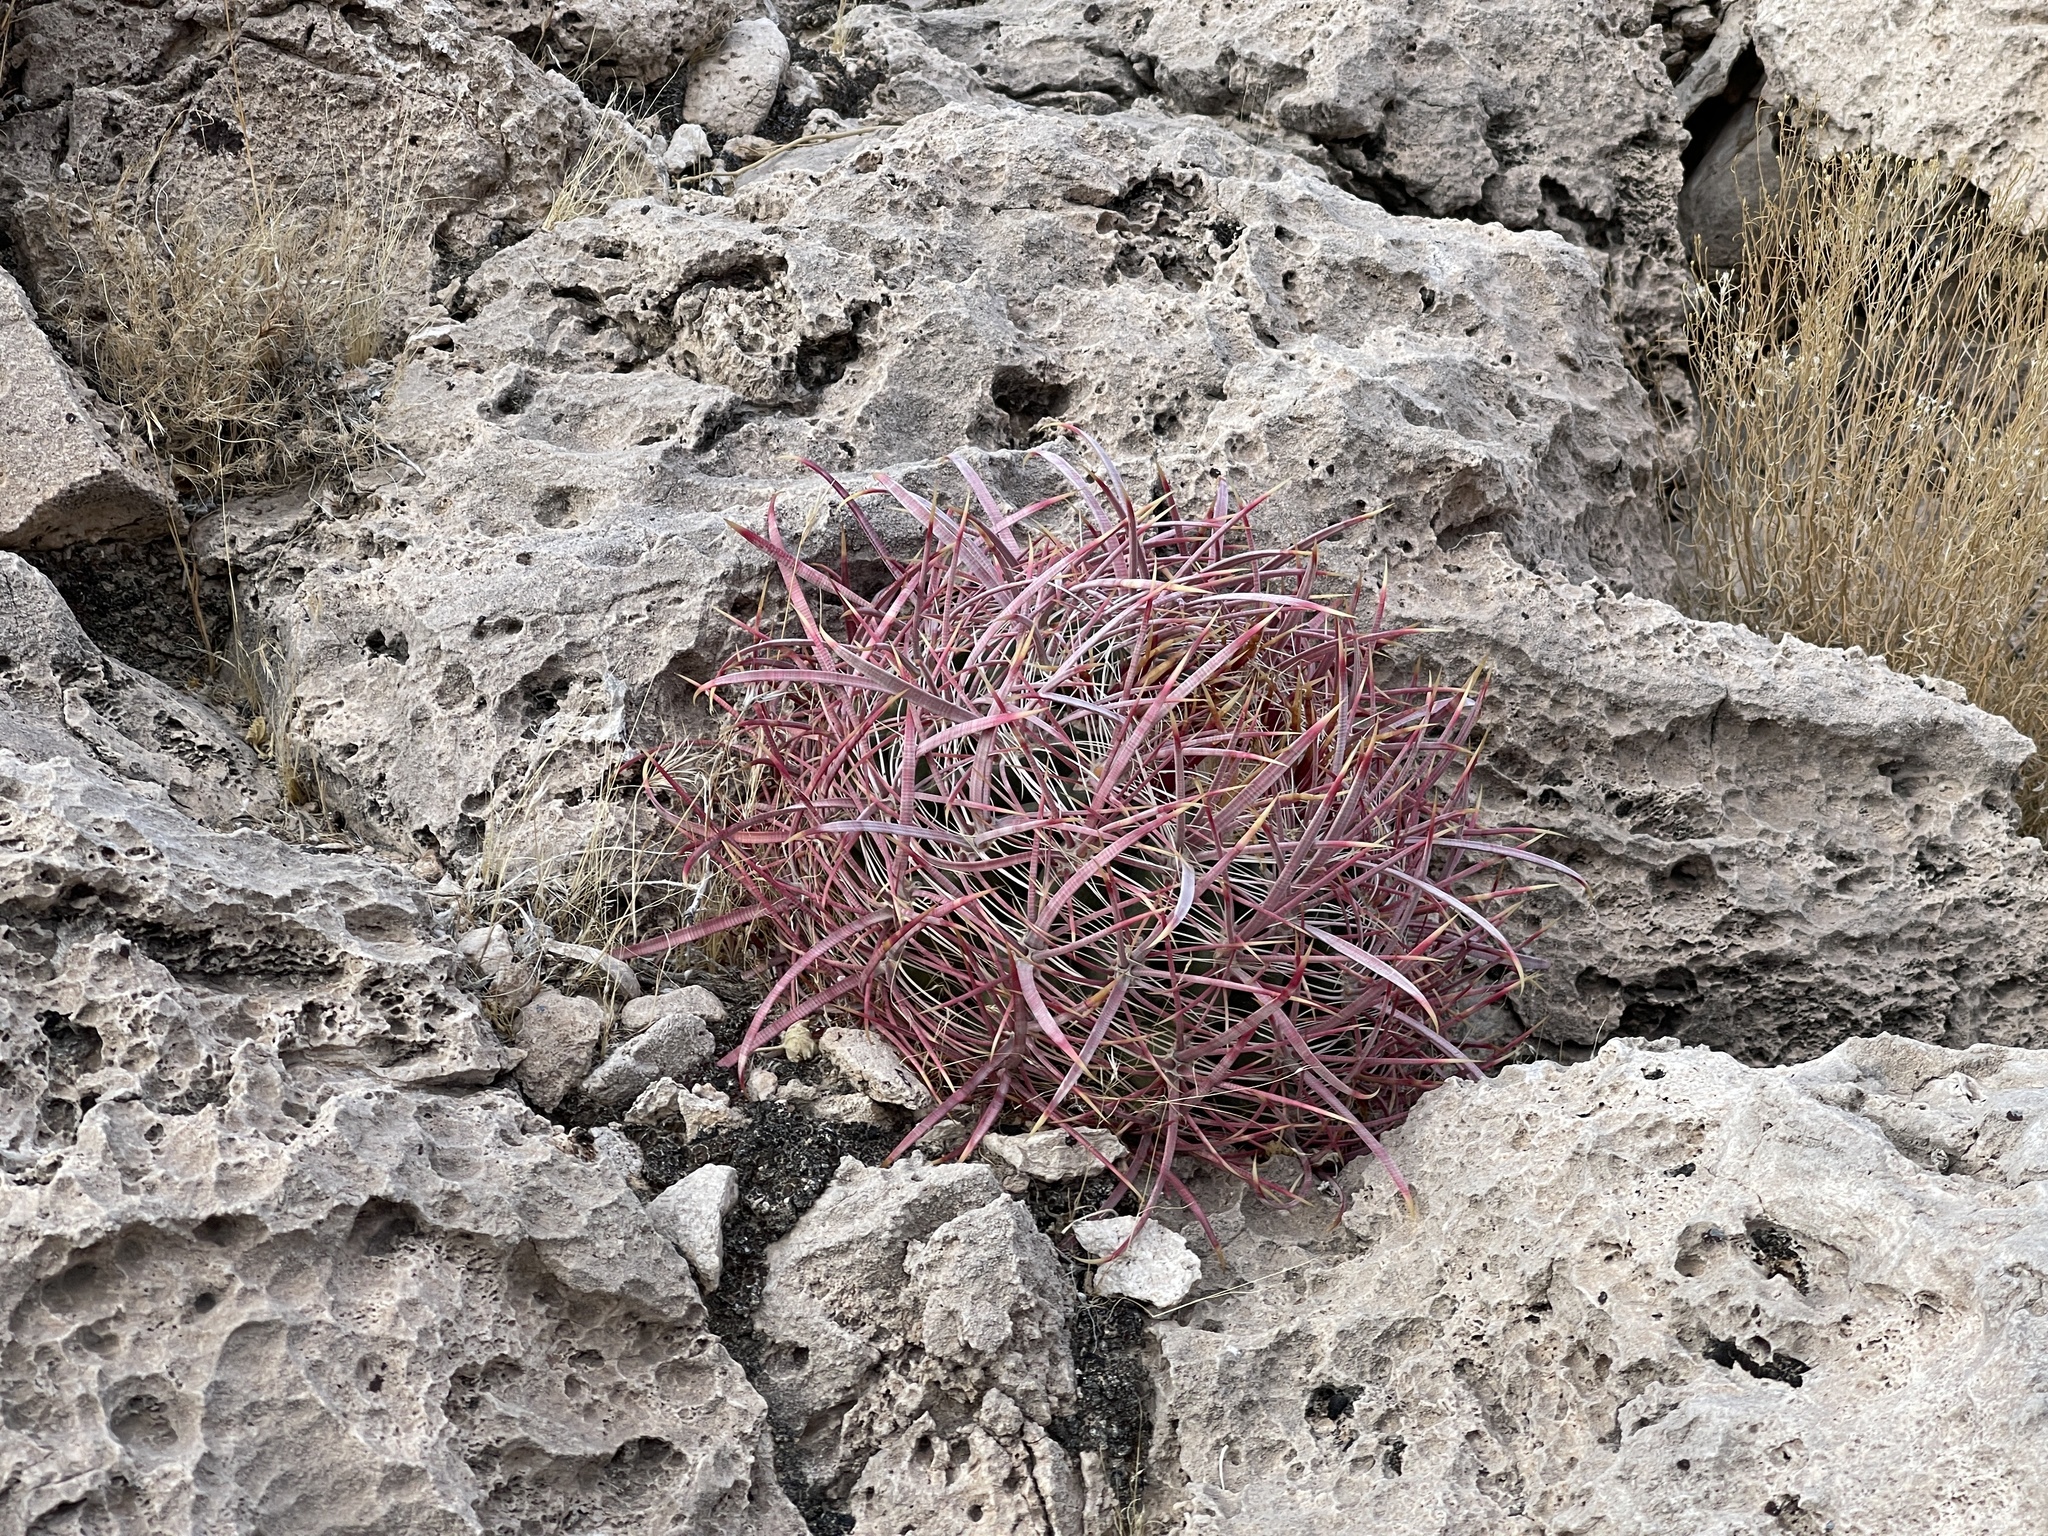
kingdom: Plantae
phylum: Tracheophyta
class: Magnoliopsida
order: Caryophyllales
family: Cactaceae
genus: Ferocactus
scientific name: Ferocactus cylindraceus
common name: California barrel cactus
